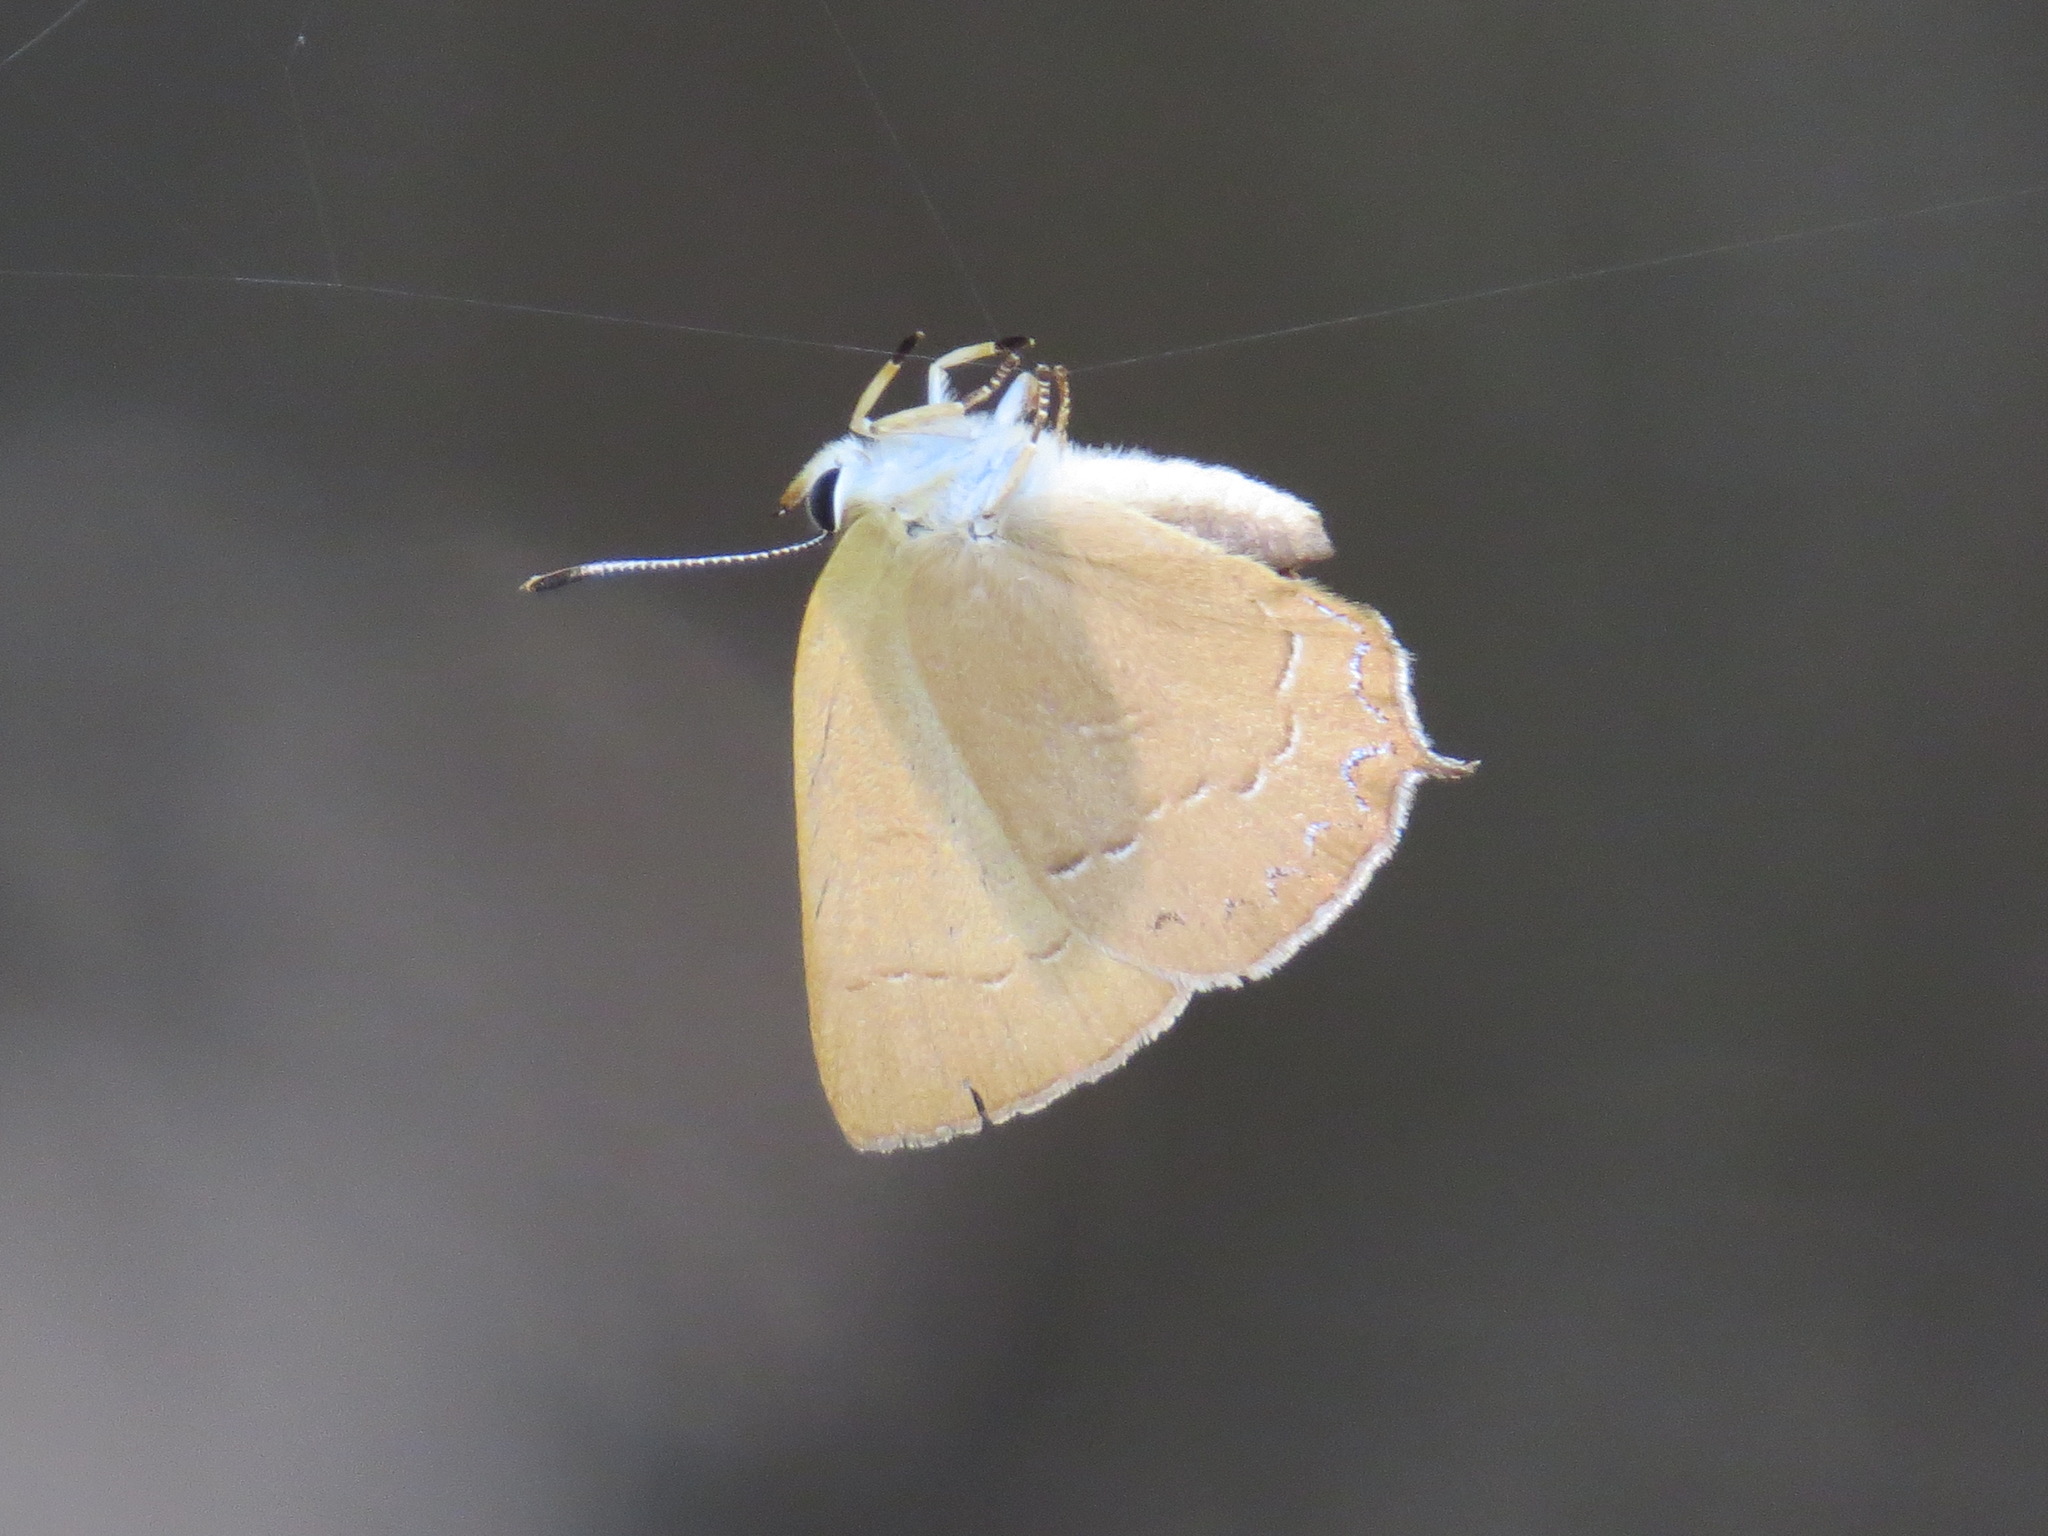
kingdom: Animalia
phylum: Arthropoda
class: Insecta
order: Lepidoptera
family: Lycaenidae
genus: Habrodais
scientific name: Habrodais grunus
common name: Golden hairstreak
